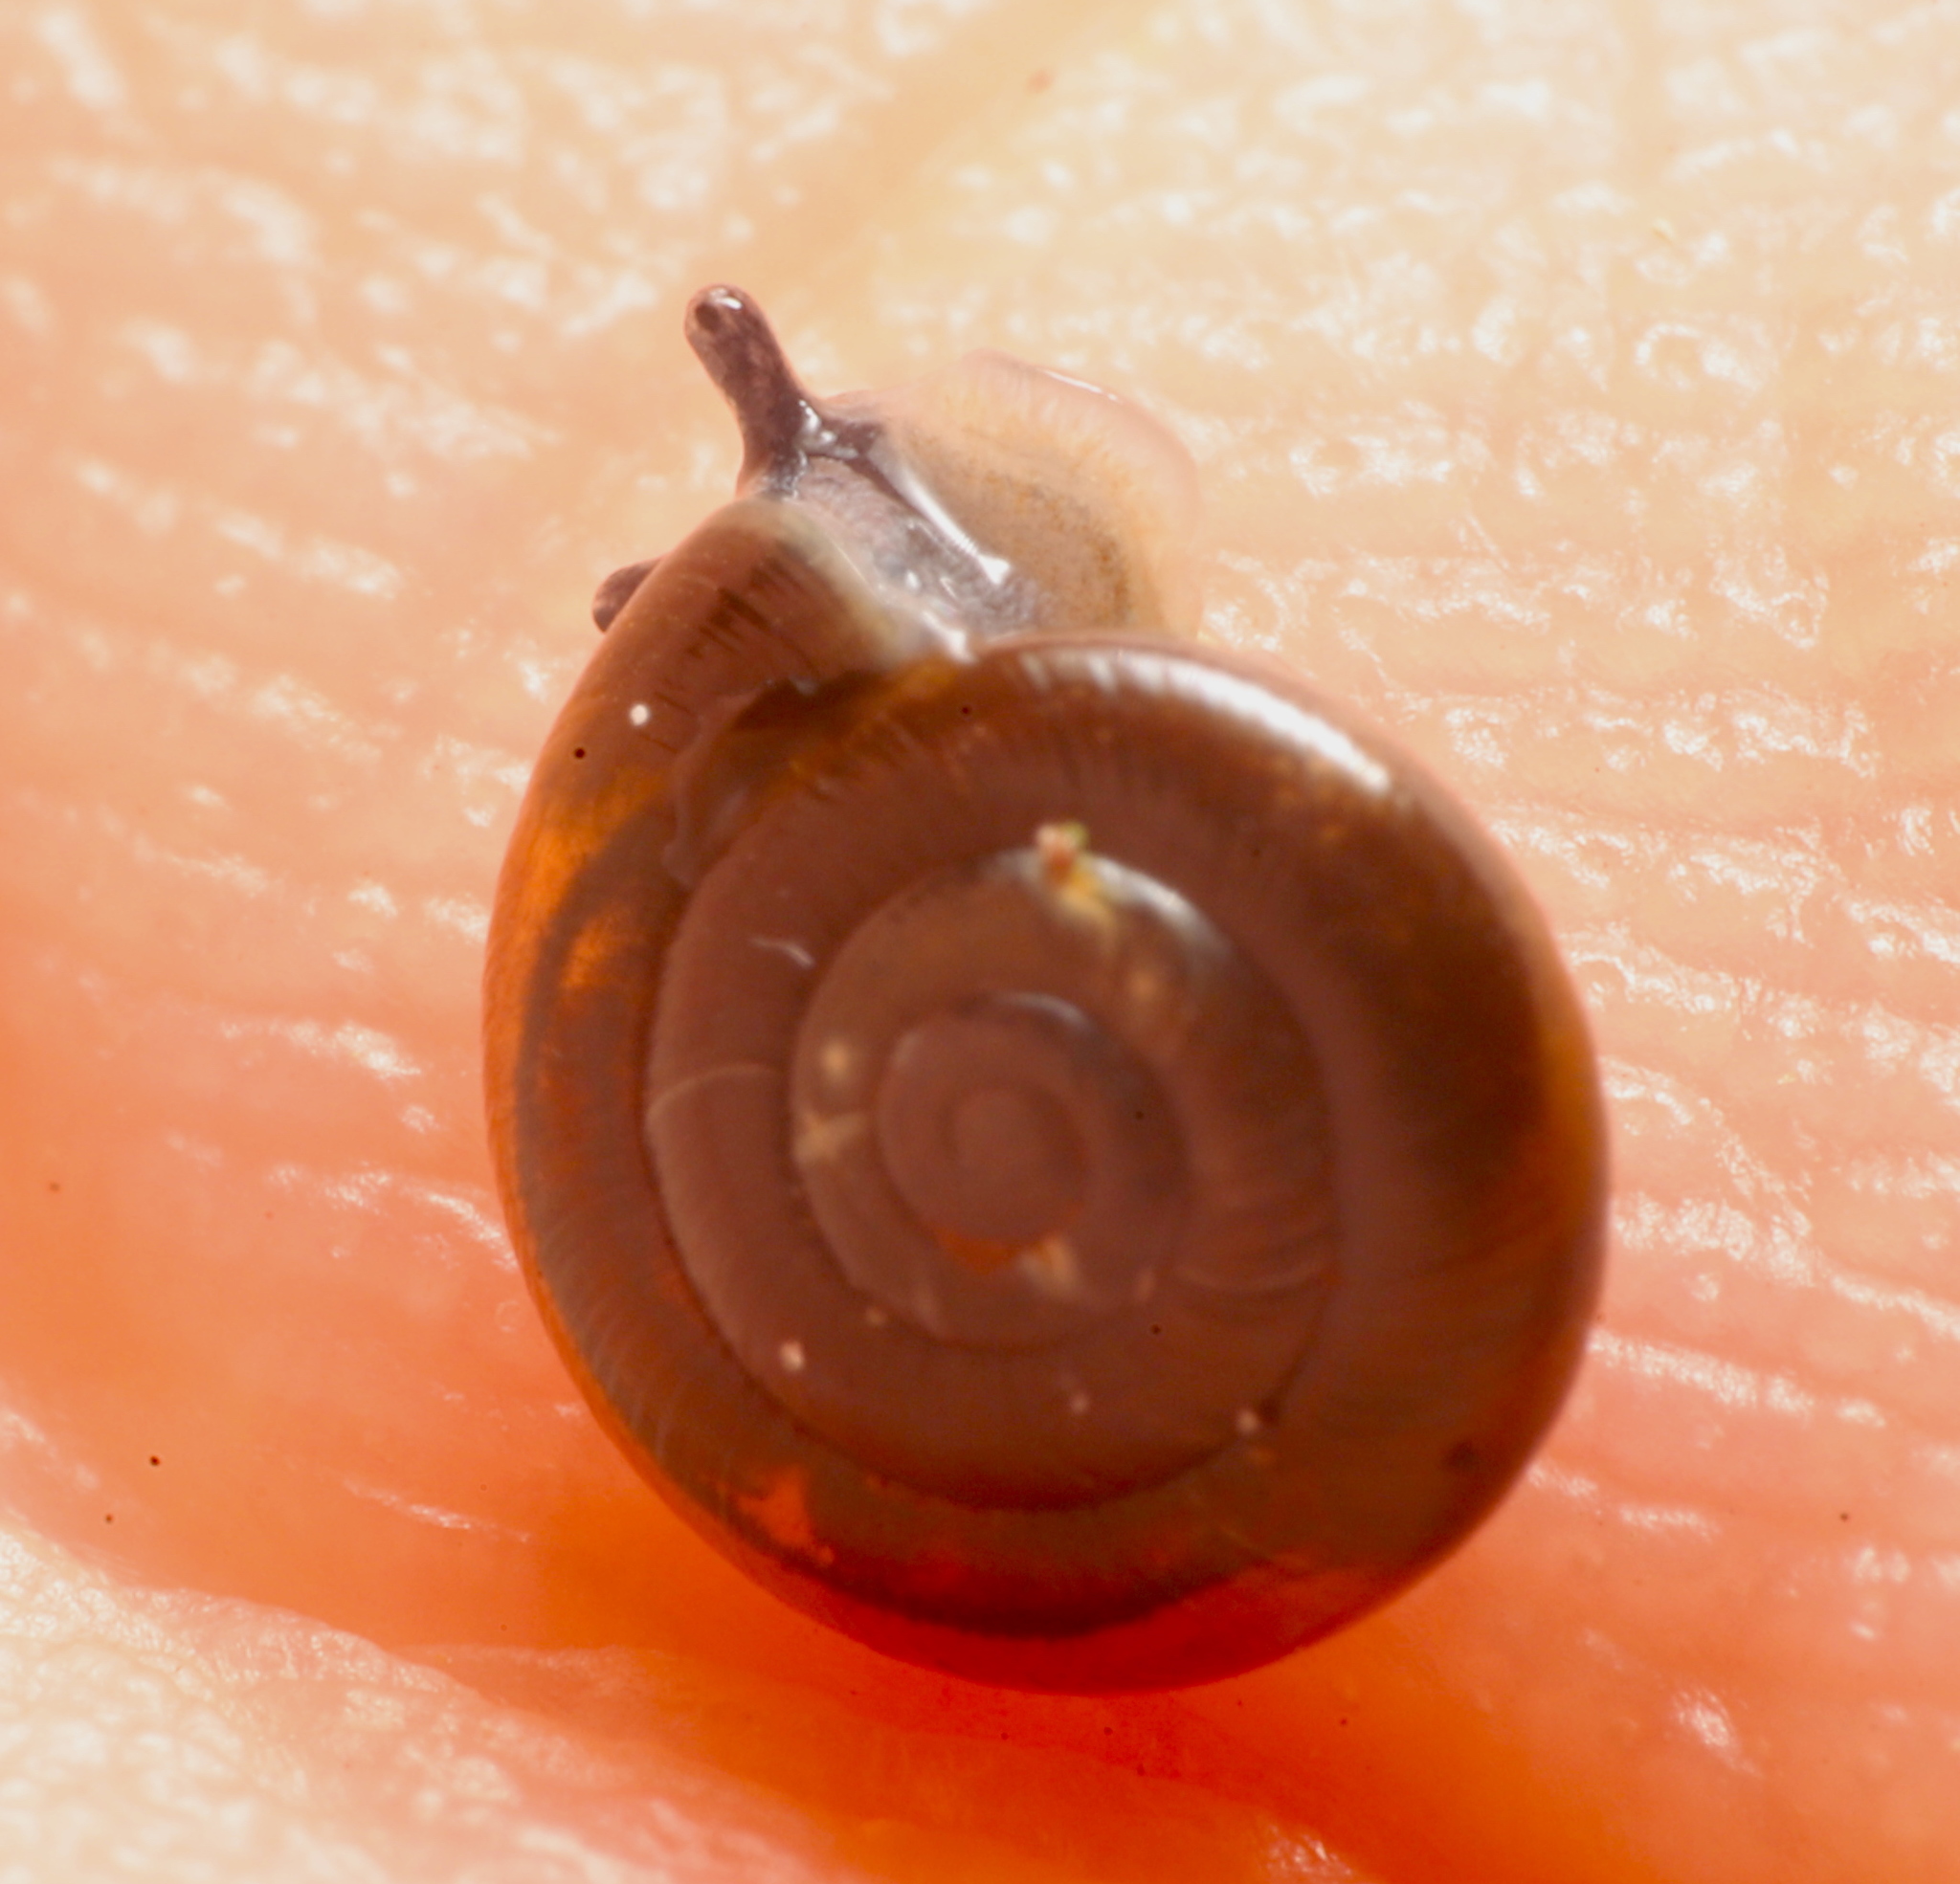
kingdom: Animalia
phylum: Mollusca
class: Gastropoda
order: Stylommatophora
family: Gastrodontidae
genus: Zonitoides
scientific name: Zonitoides arboreus
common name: Quick gloss
